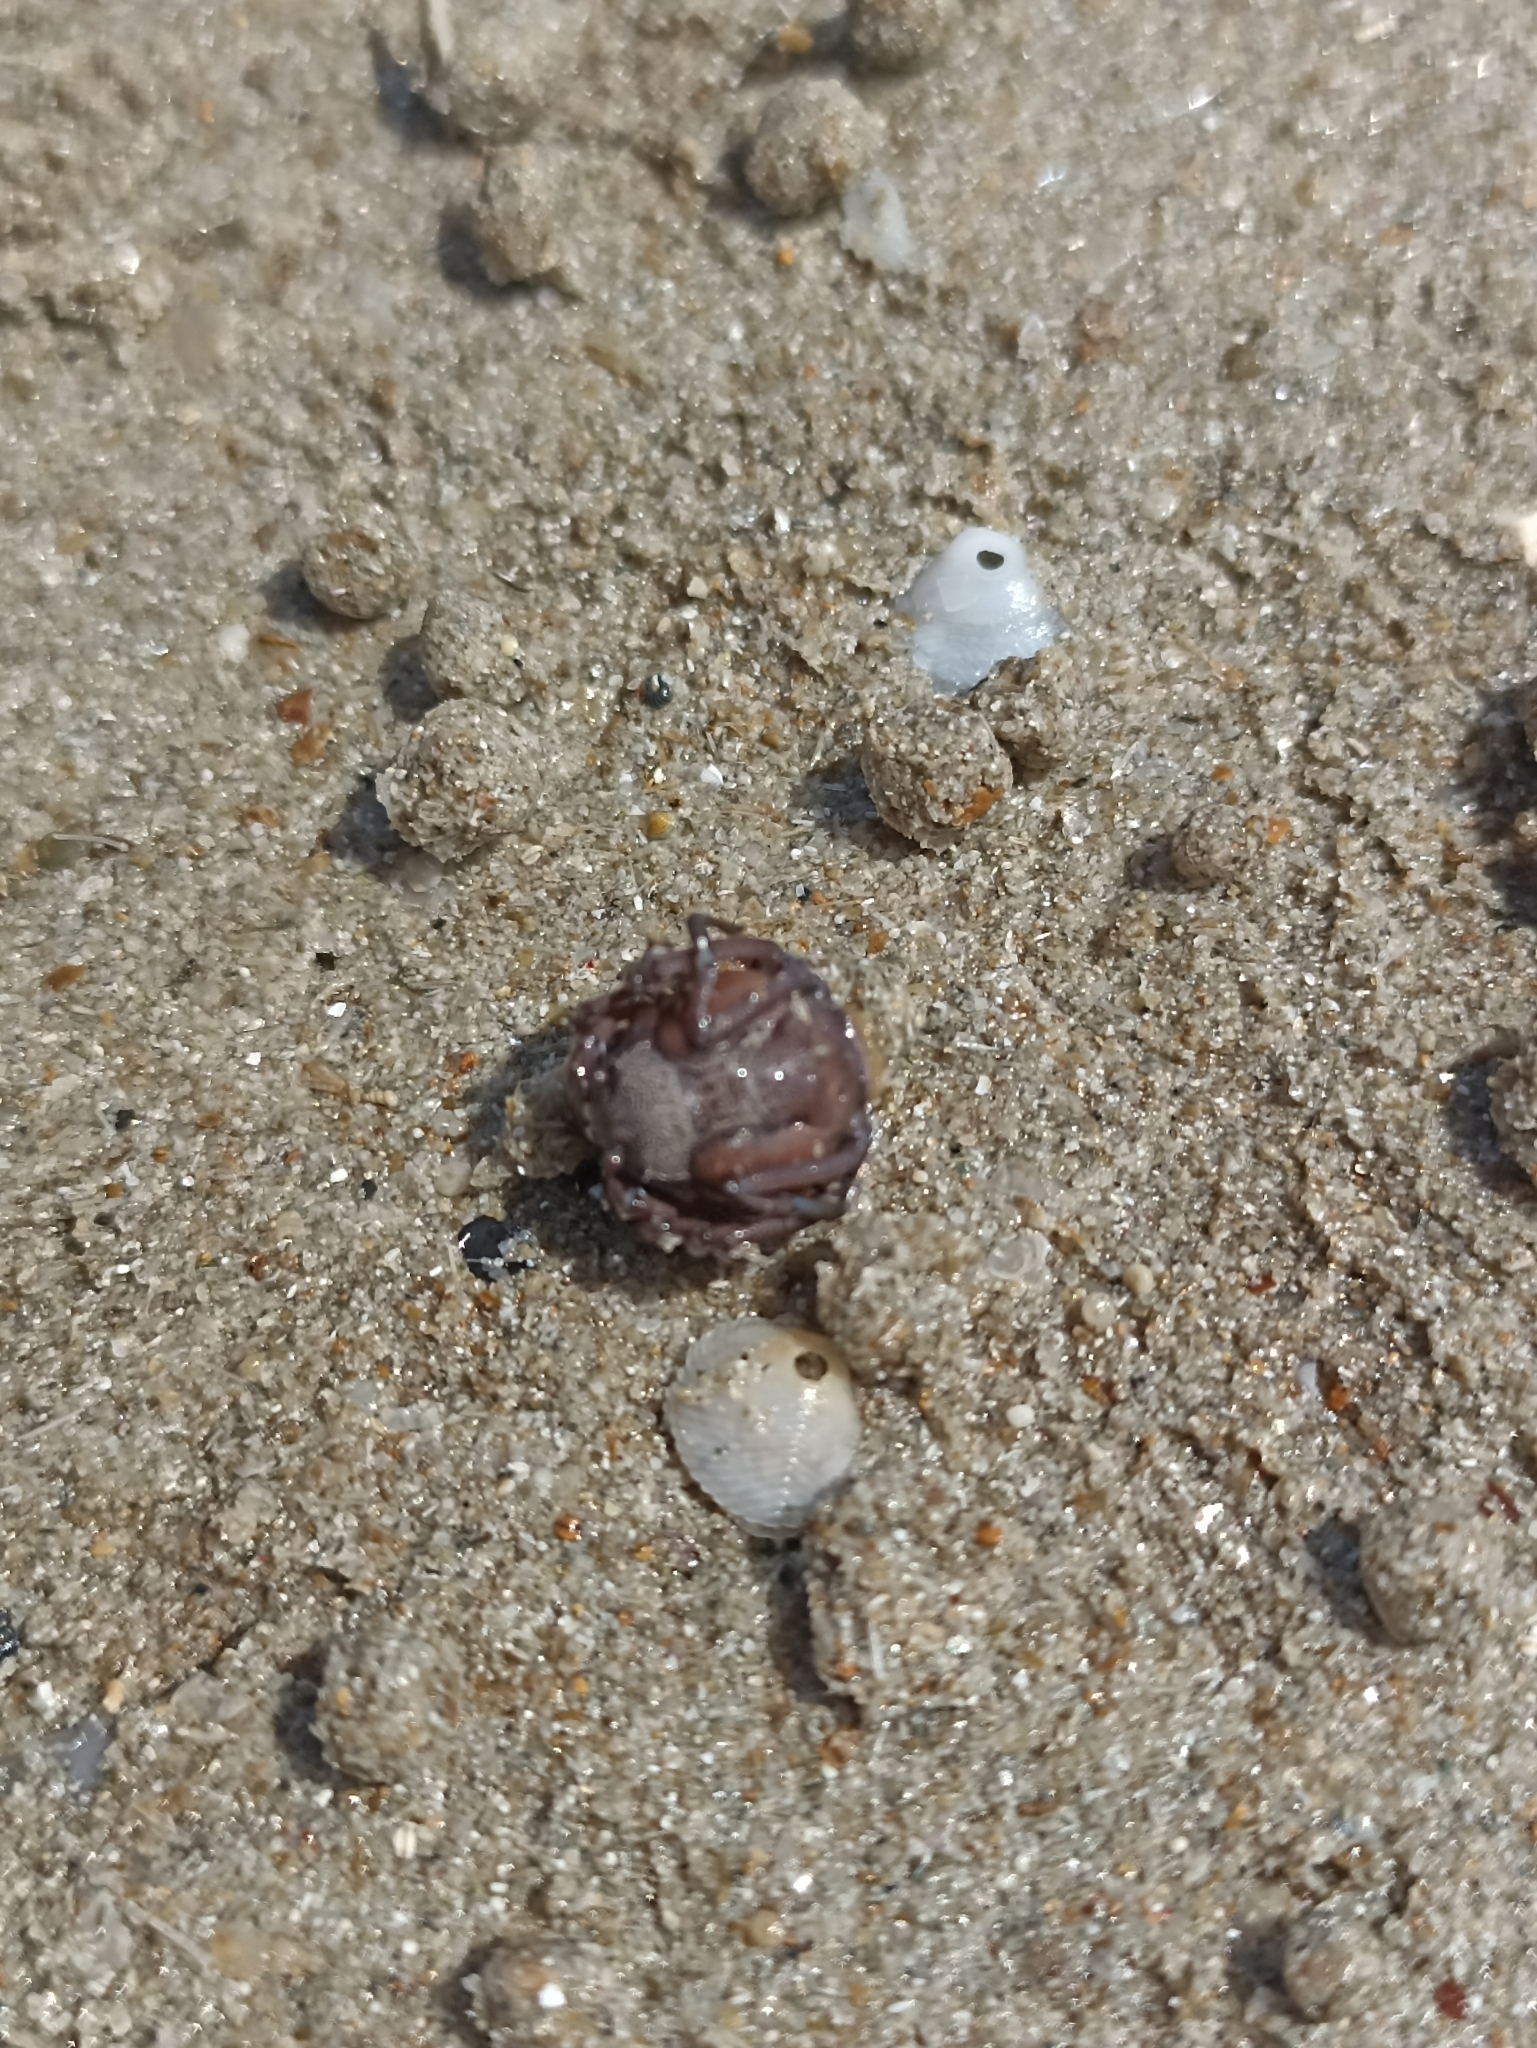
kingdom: Animalia
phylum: Arthropoda
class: Malacostraca
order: Decapoda
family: Mictyridae
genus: Mictyris
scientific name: Mictyris darwinensis
